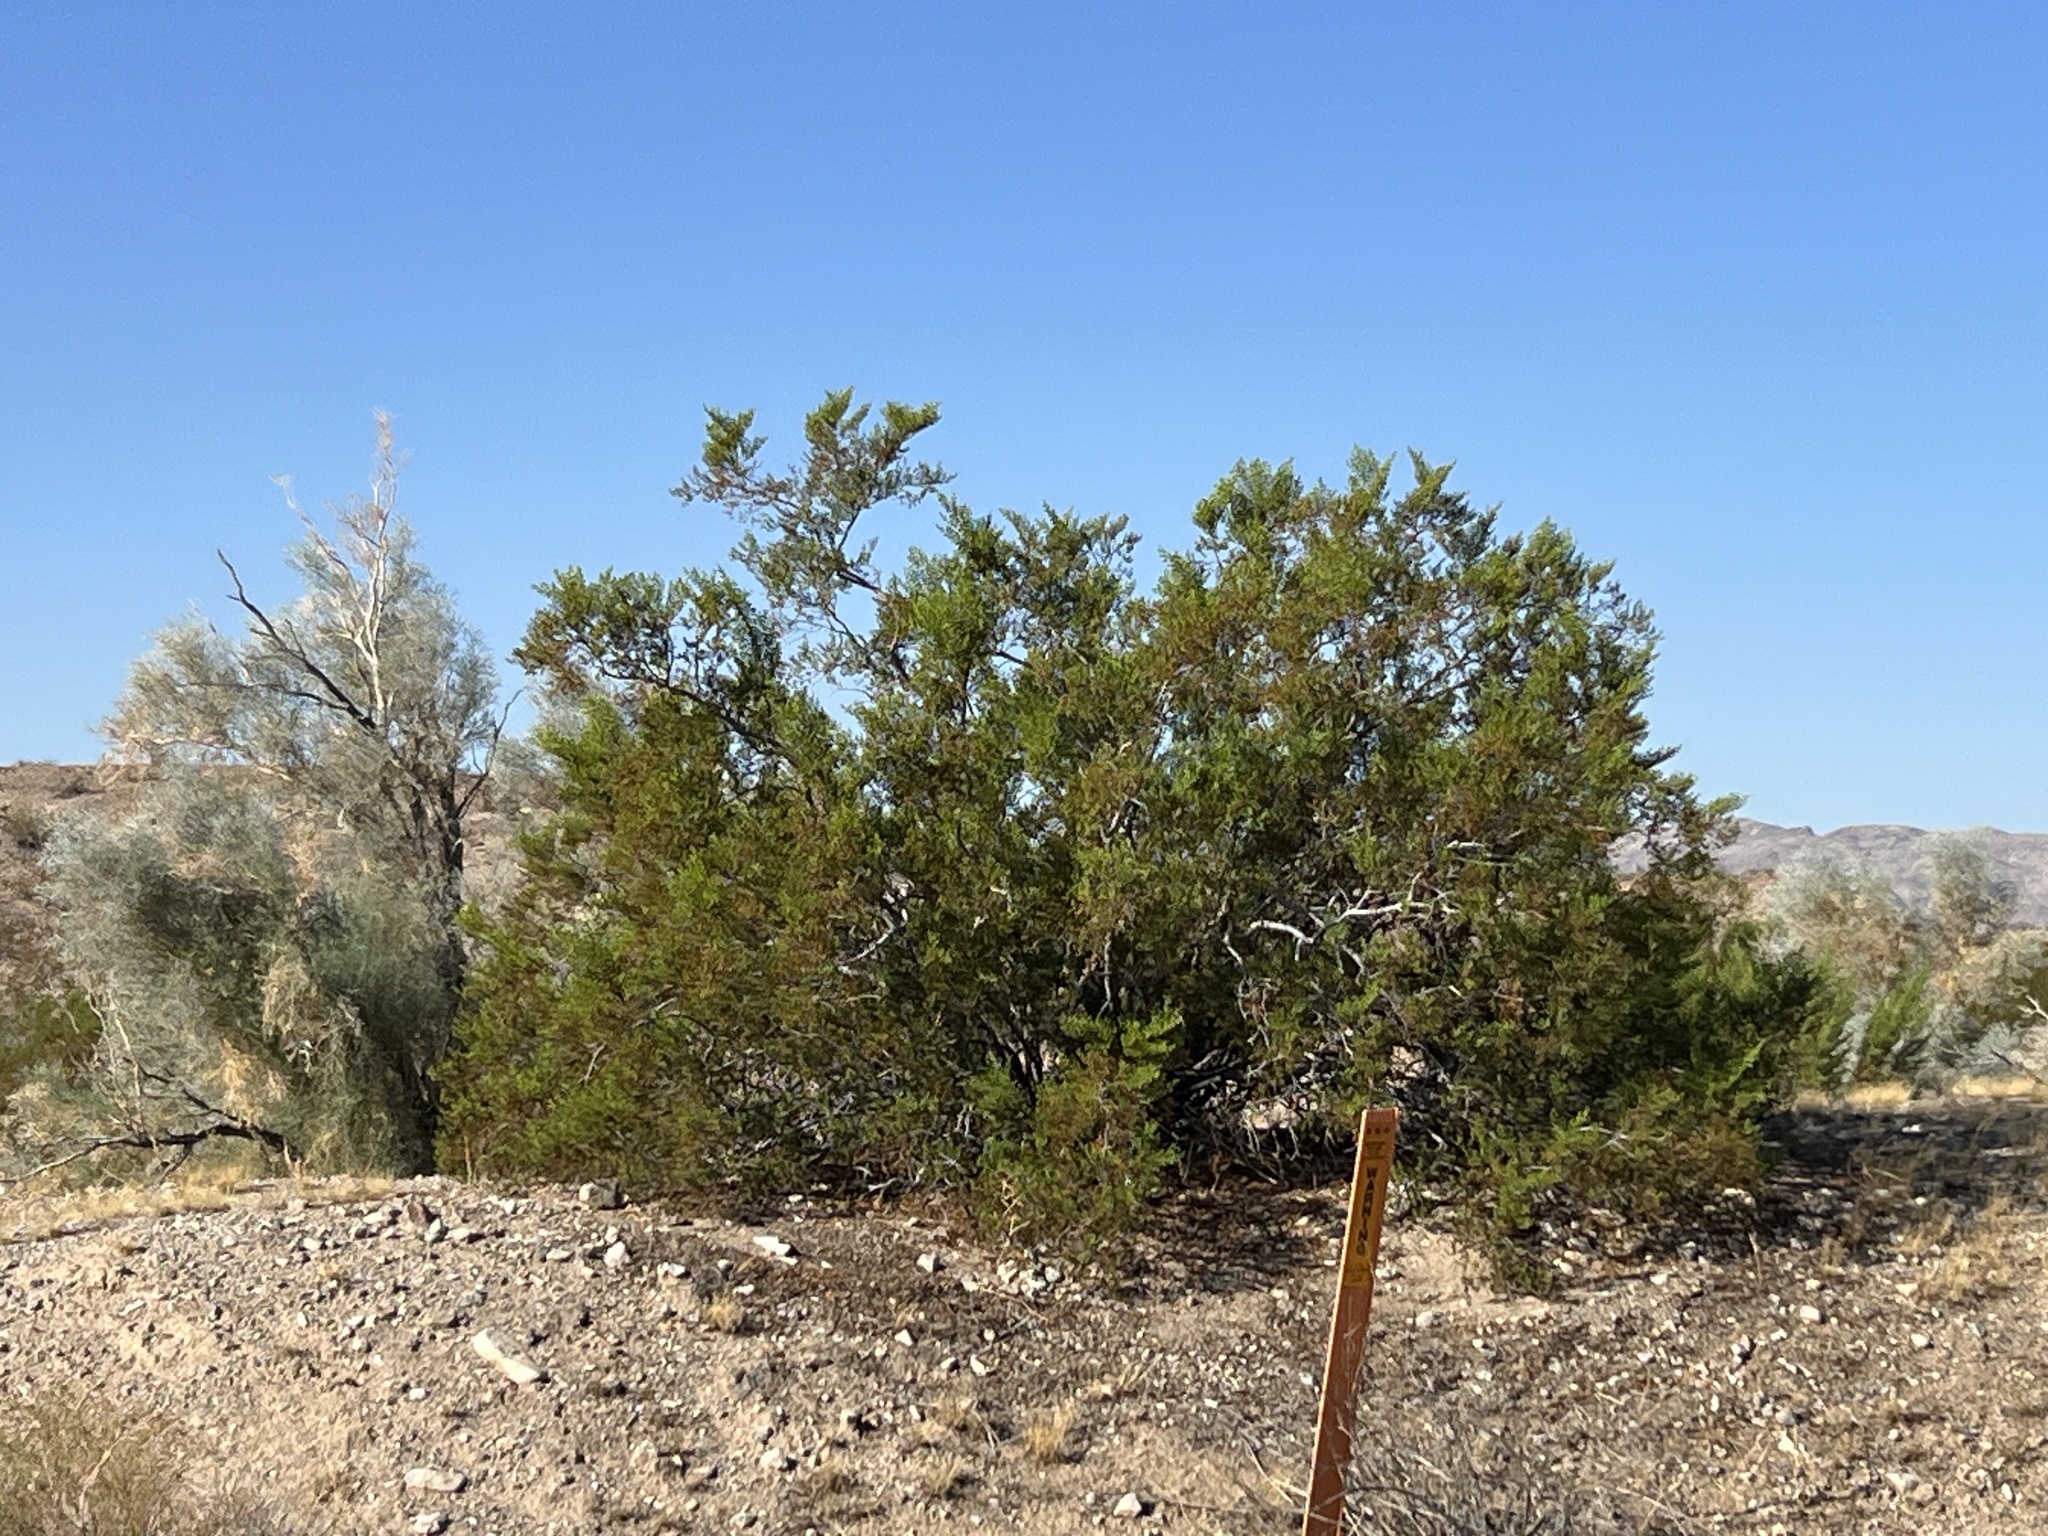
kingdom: Plantae
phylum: Tracheophyta
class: Magnoliopsida
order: Zygophyllales
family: Zygophyllaceae
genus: Larrea
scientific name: Larrea tridentata
